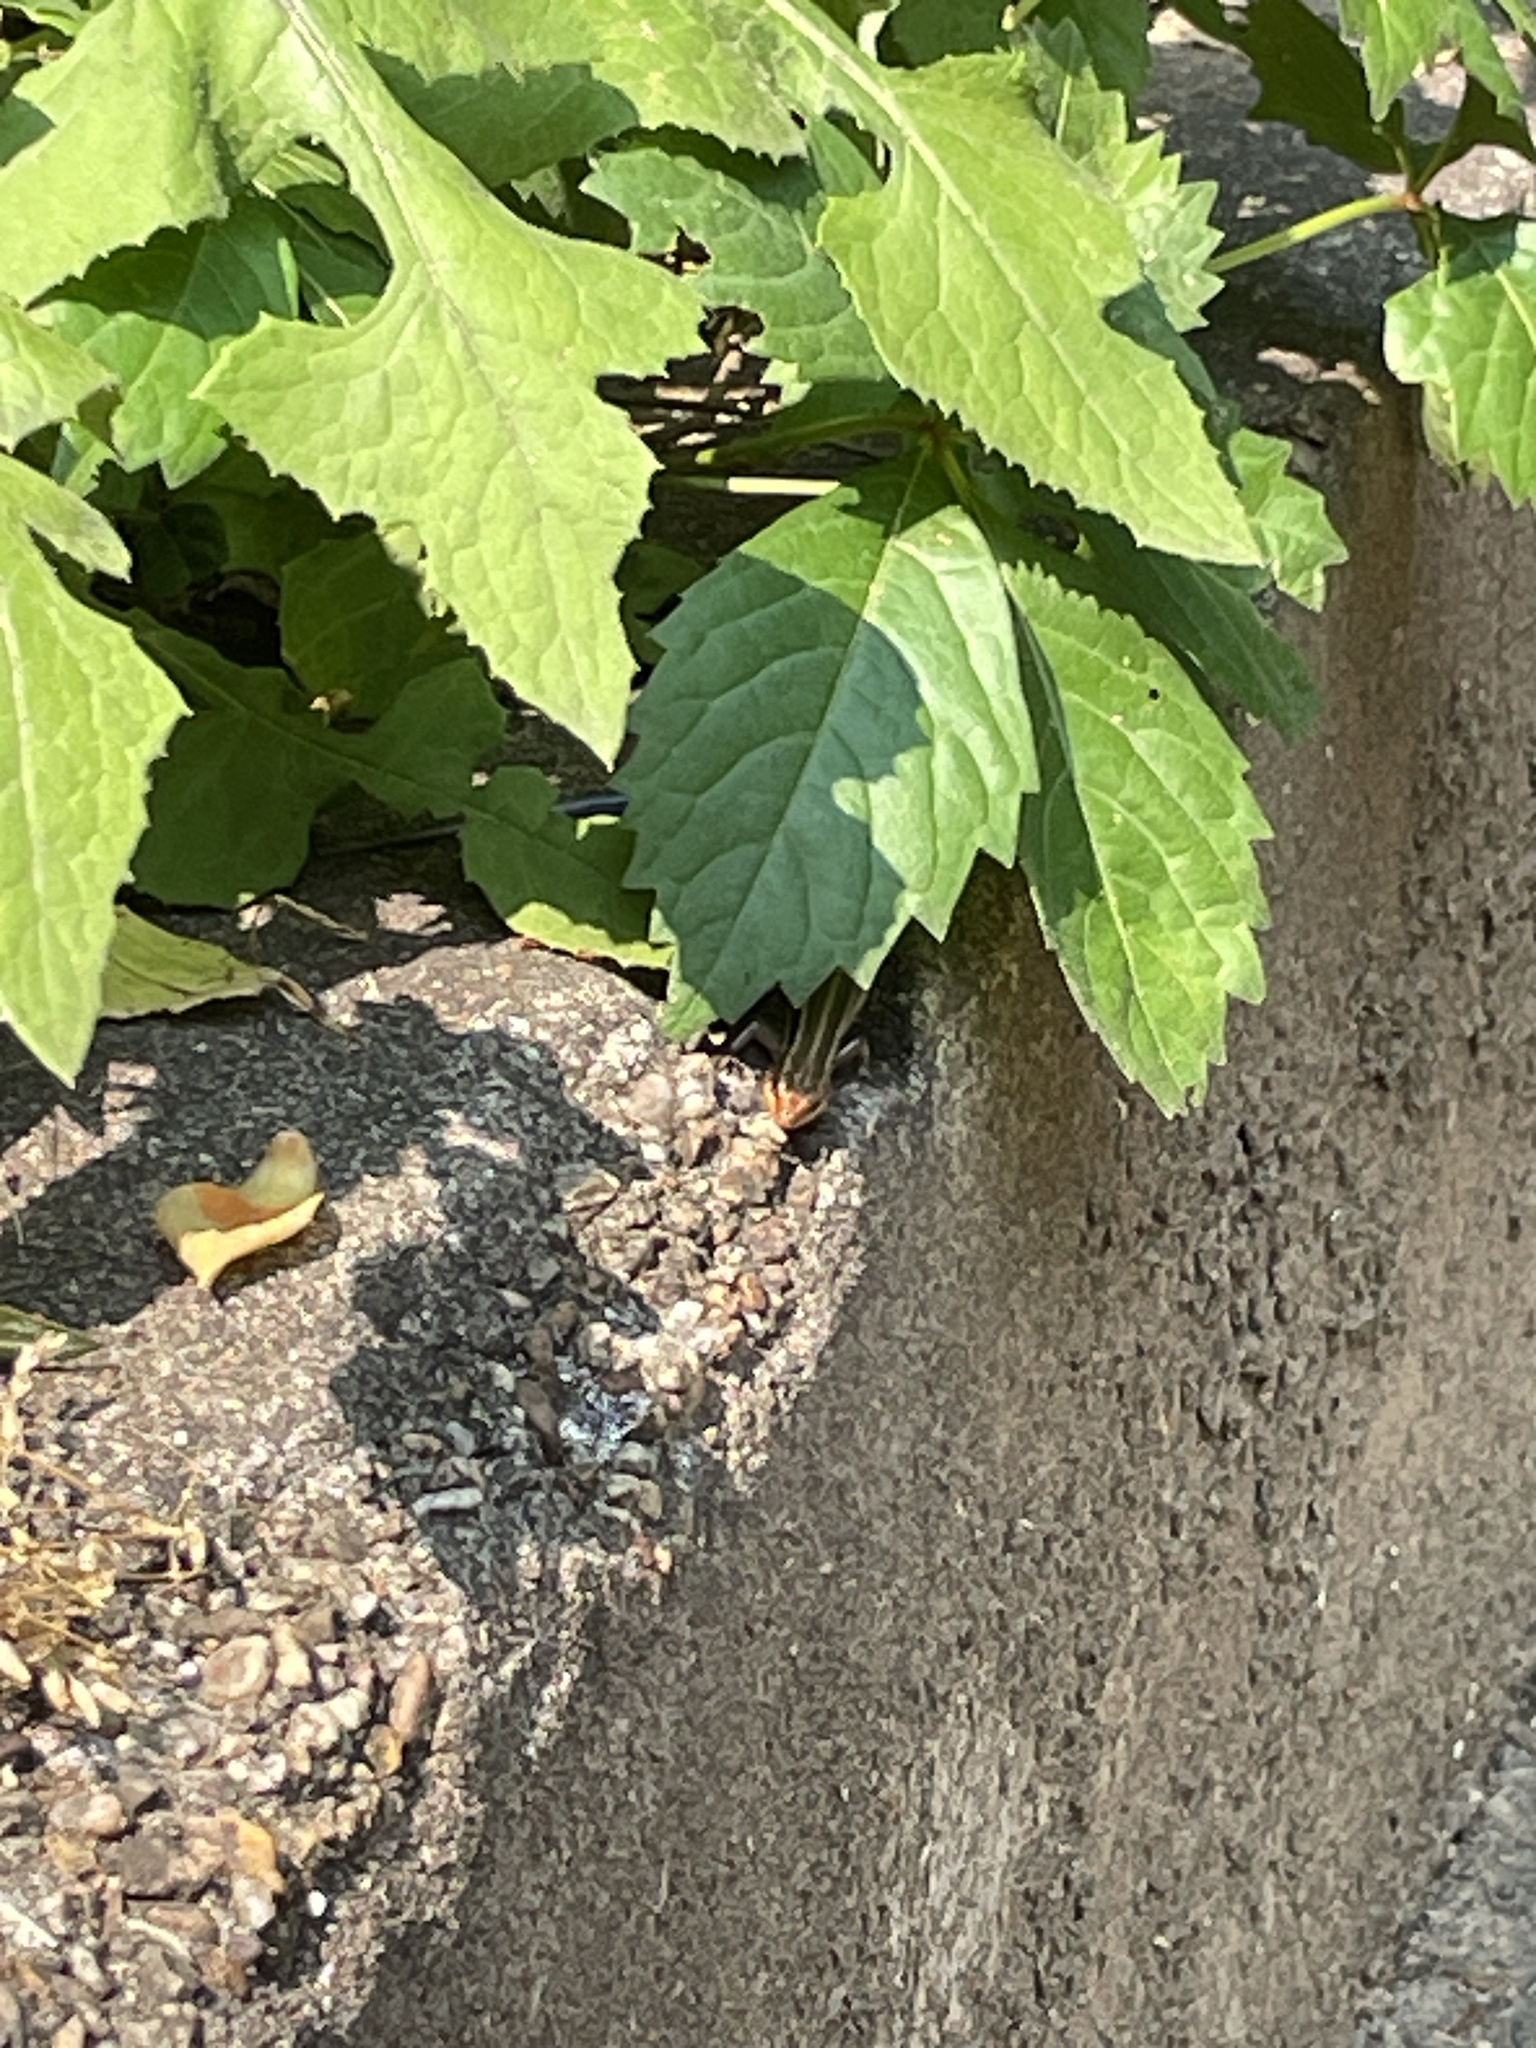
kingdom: Animalia
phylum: Chordata
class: Squamata
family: Scincidae
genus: Plestiodon
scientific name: Plestiodon fasciatus
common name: Five-lined skink
